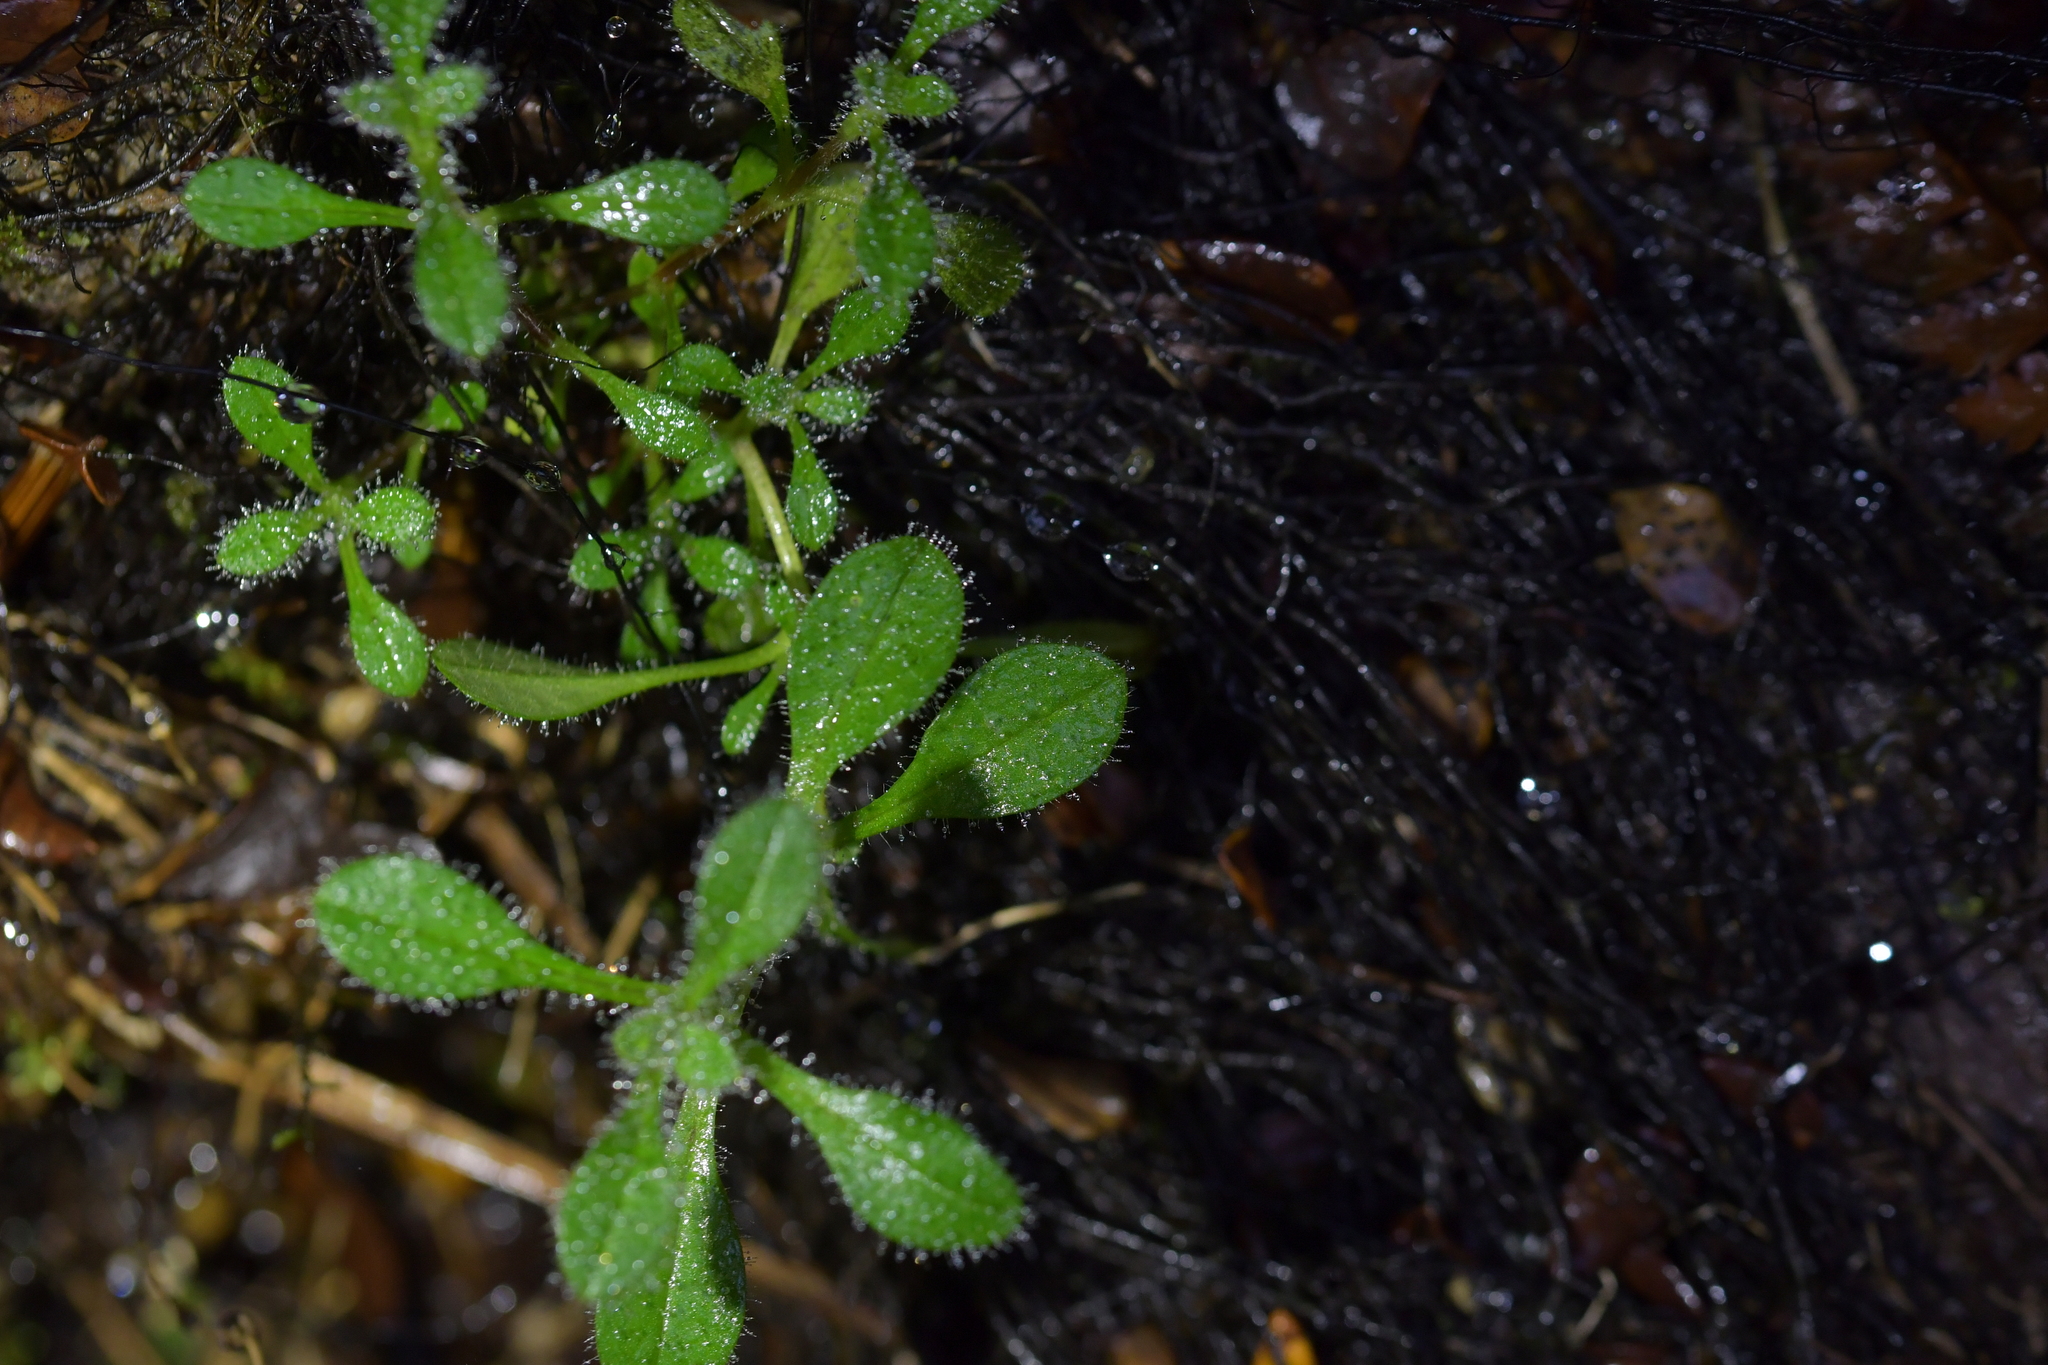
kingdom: Plantae
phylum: Tracheophyta
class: Magnoliopsida
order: Caryophyllales
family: Caryophyllaceae
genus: Cerastium
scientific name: Cerastium fontanum
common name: Common mouse-ear
